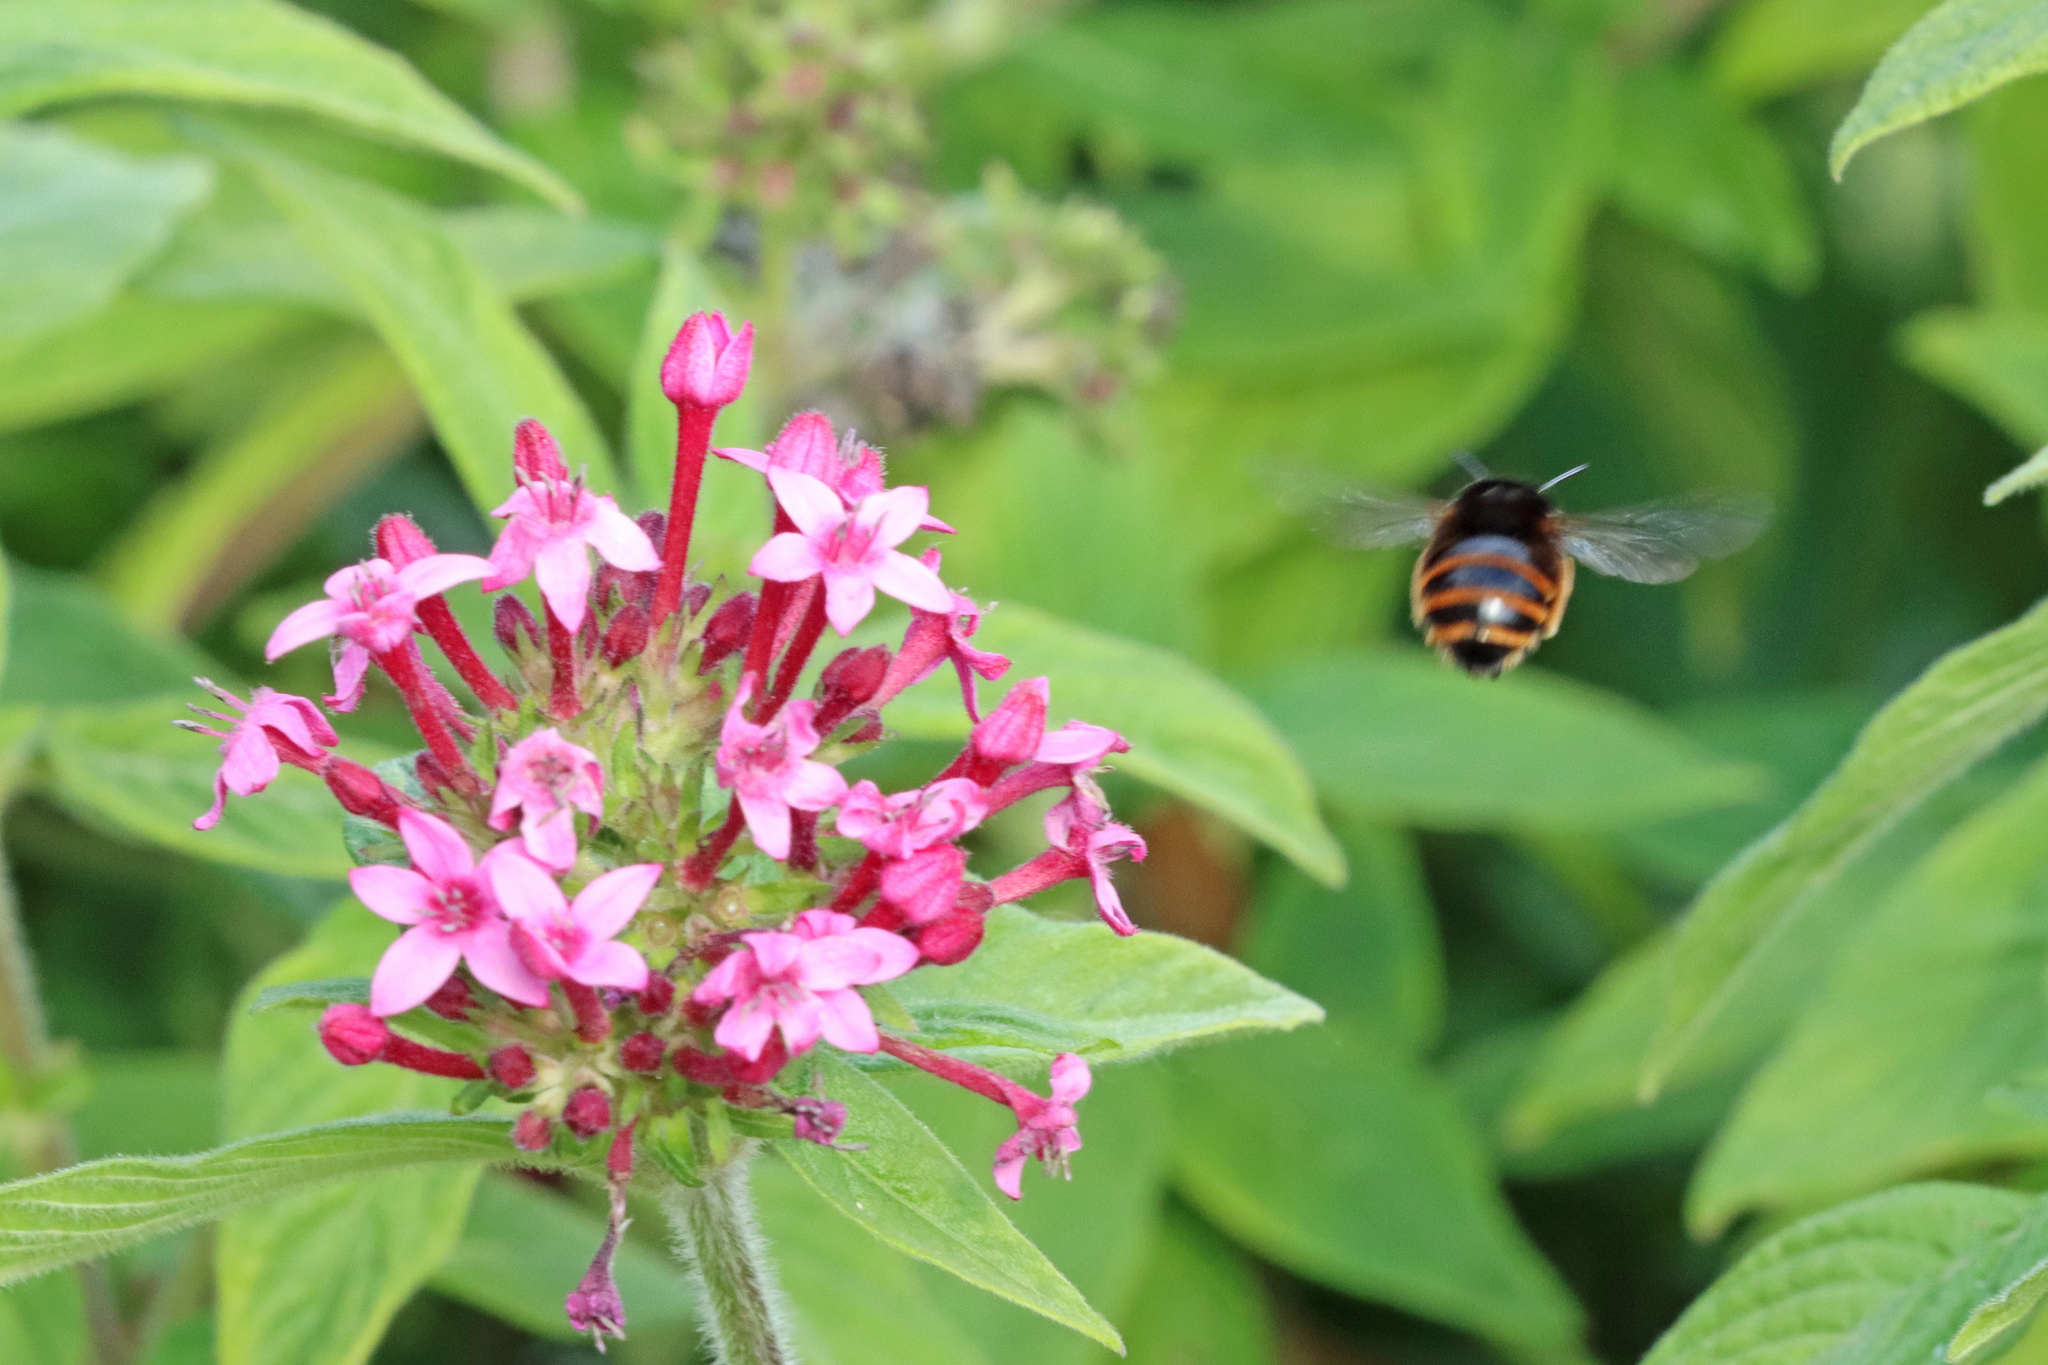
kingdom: Animalia
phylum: Arthropoda
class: Insecta
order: Hymenoptera
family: Apidae
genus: Amegilla
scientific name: Amegilla quadrifasciata
